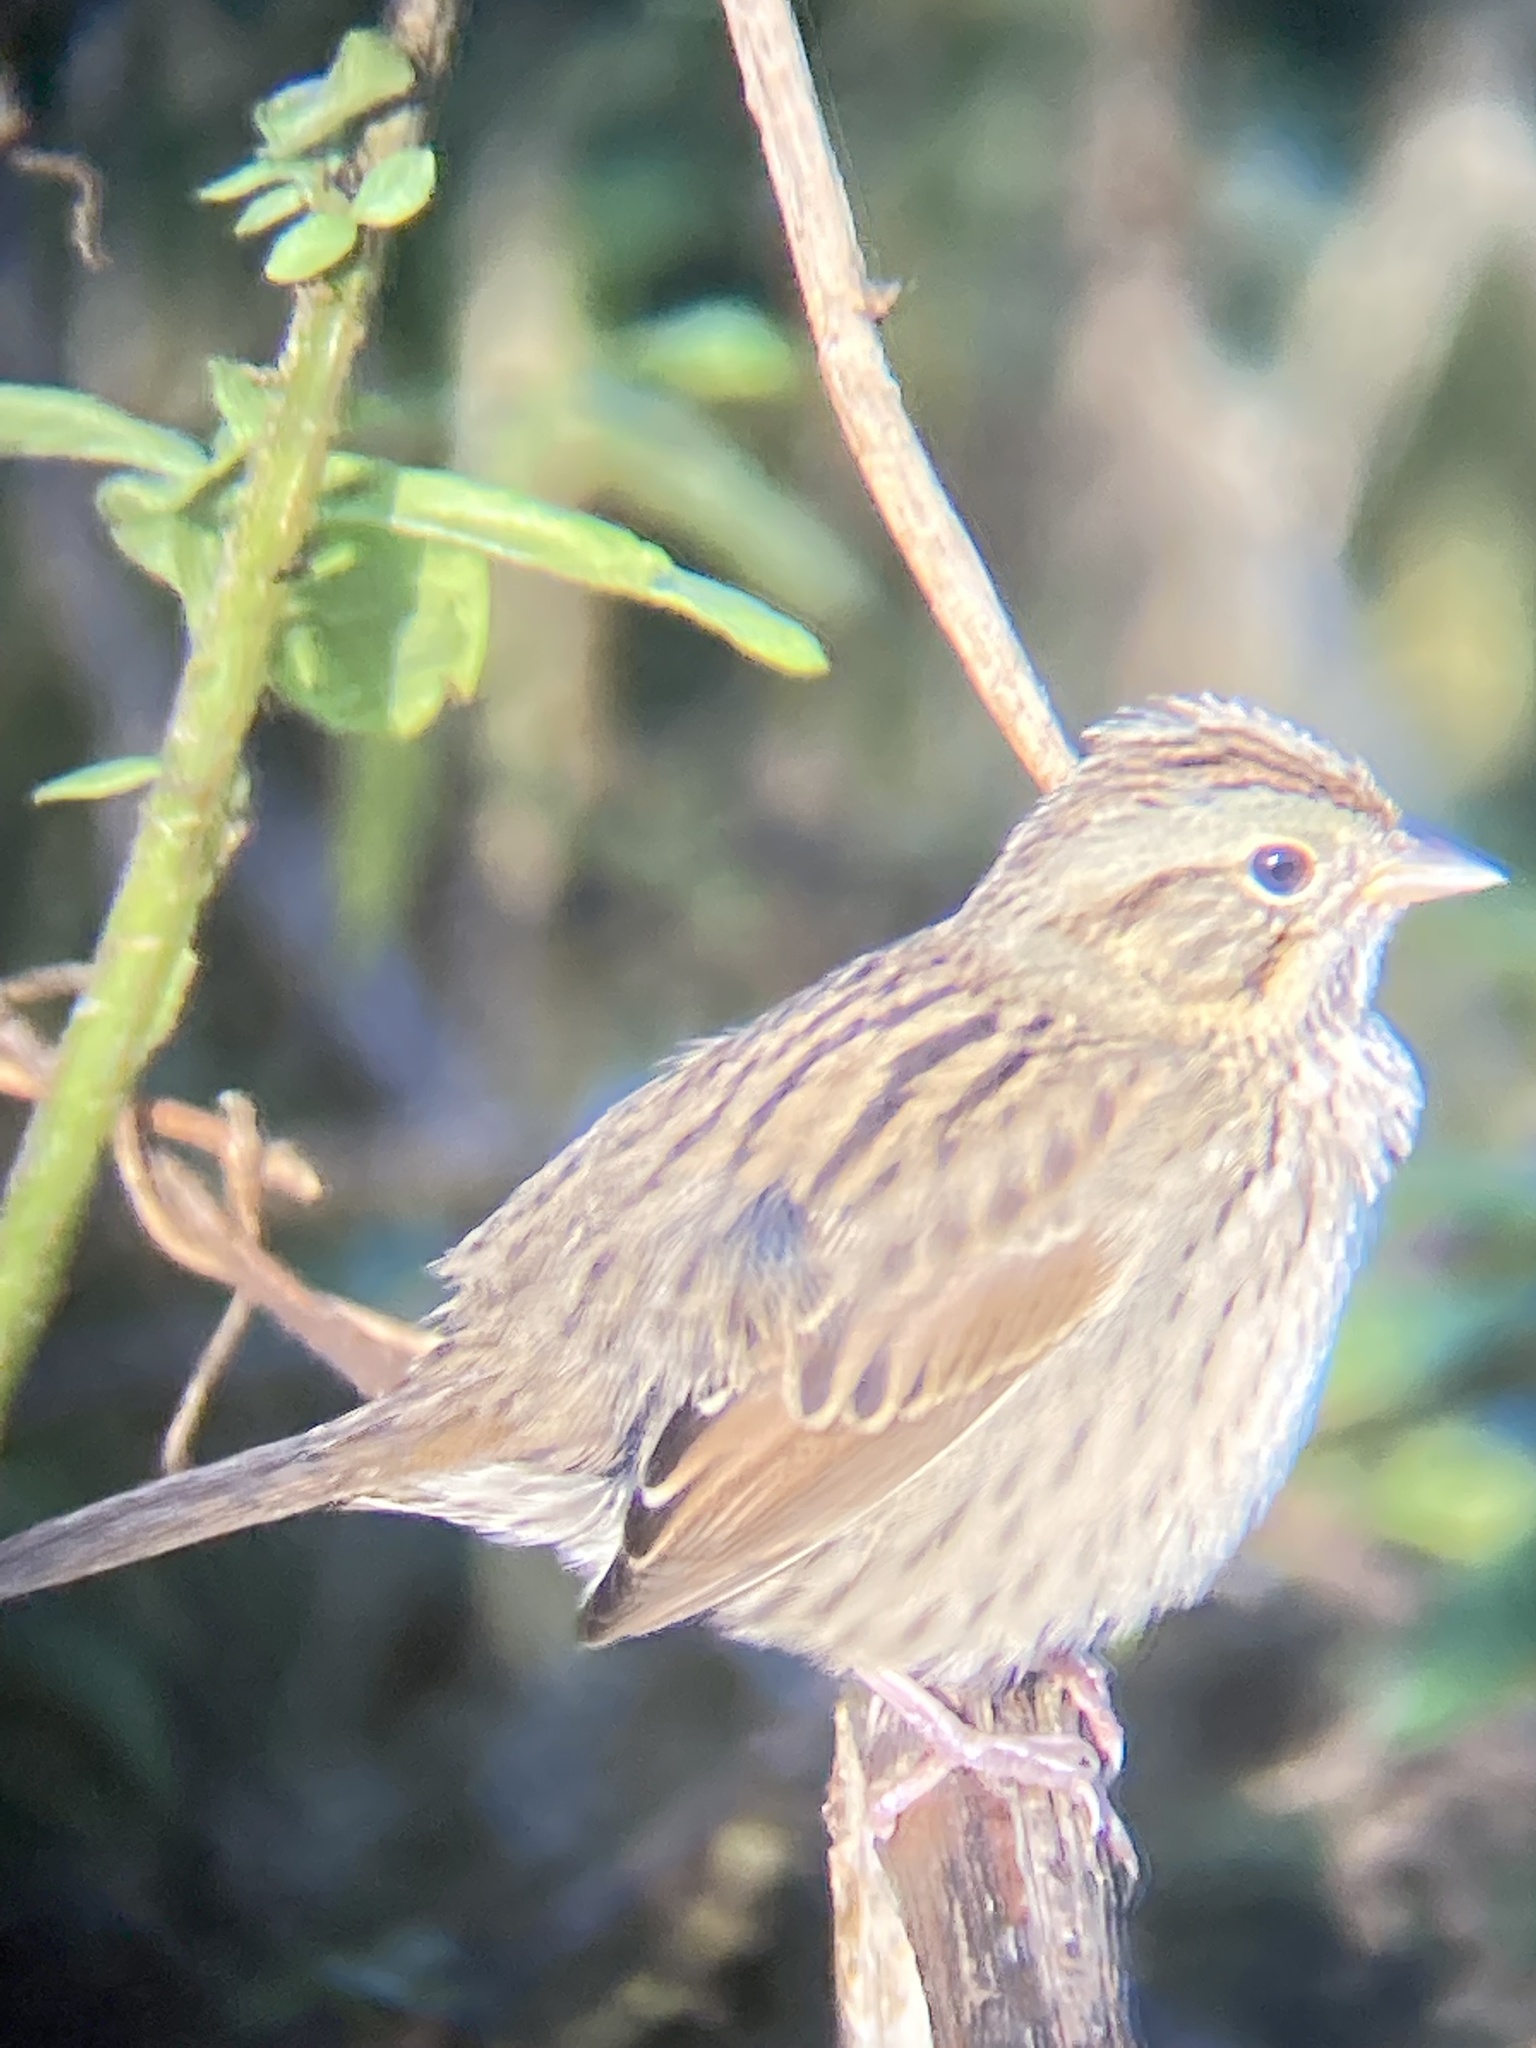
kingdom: Animalia
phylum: Chordata
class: Aves
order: Passeriformes
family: Passerellidae
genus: Melospiza
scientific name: Melospiza lincolnii
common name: Lincoln's sparrow
